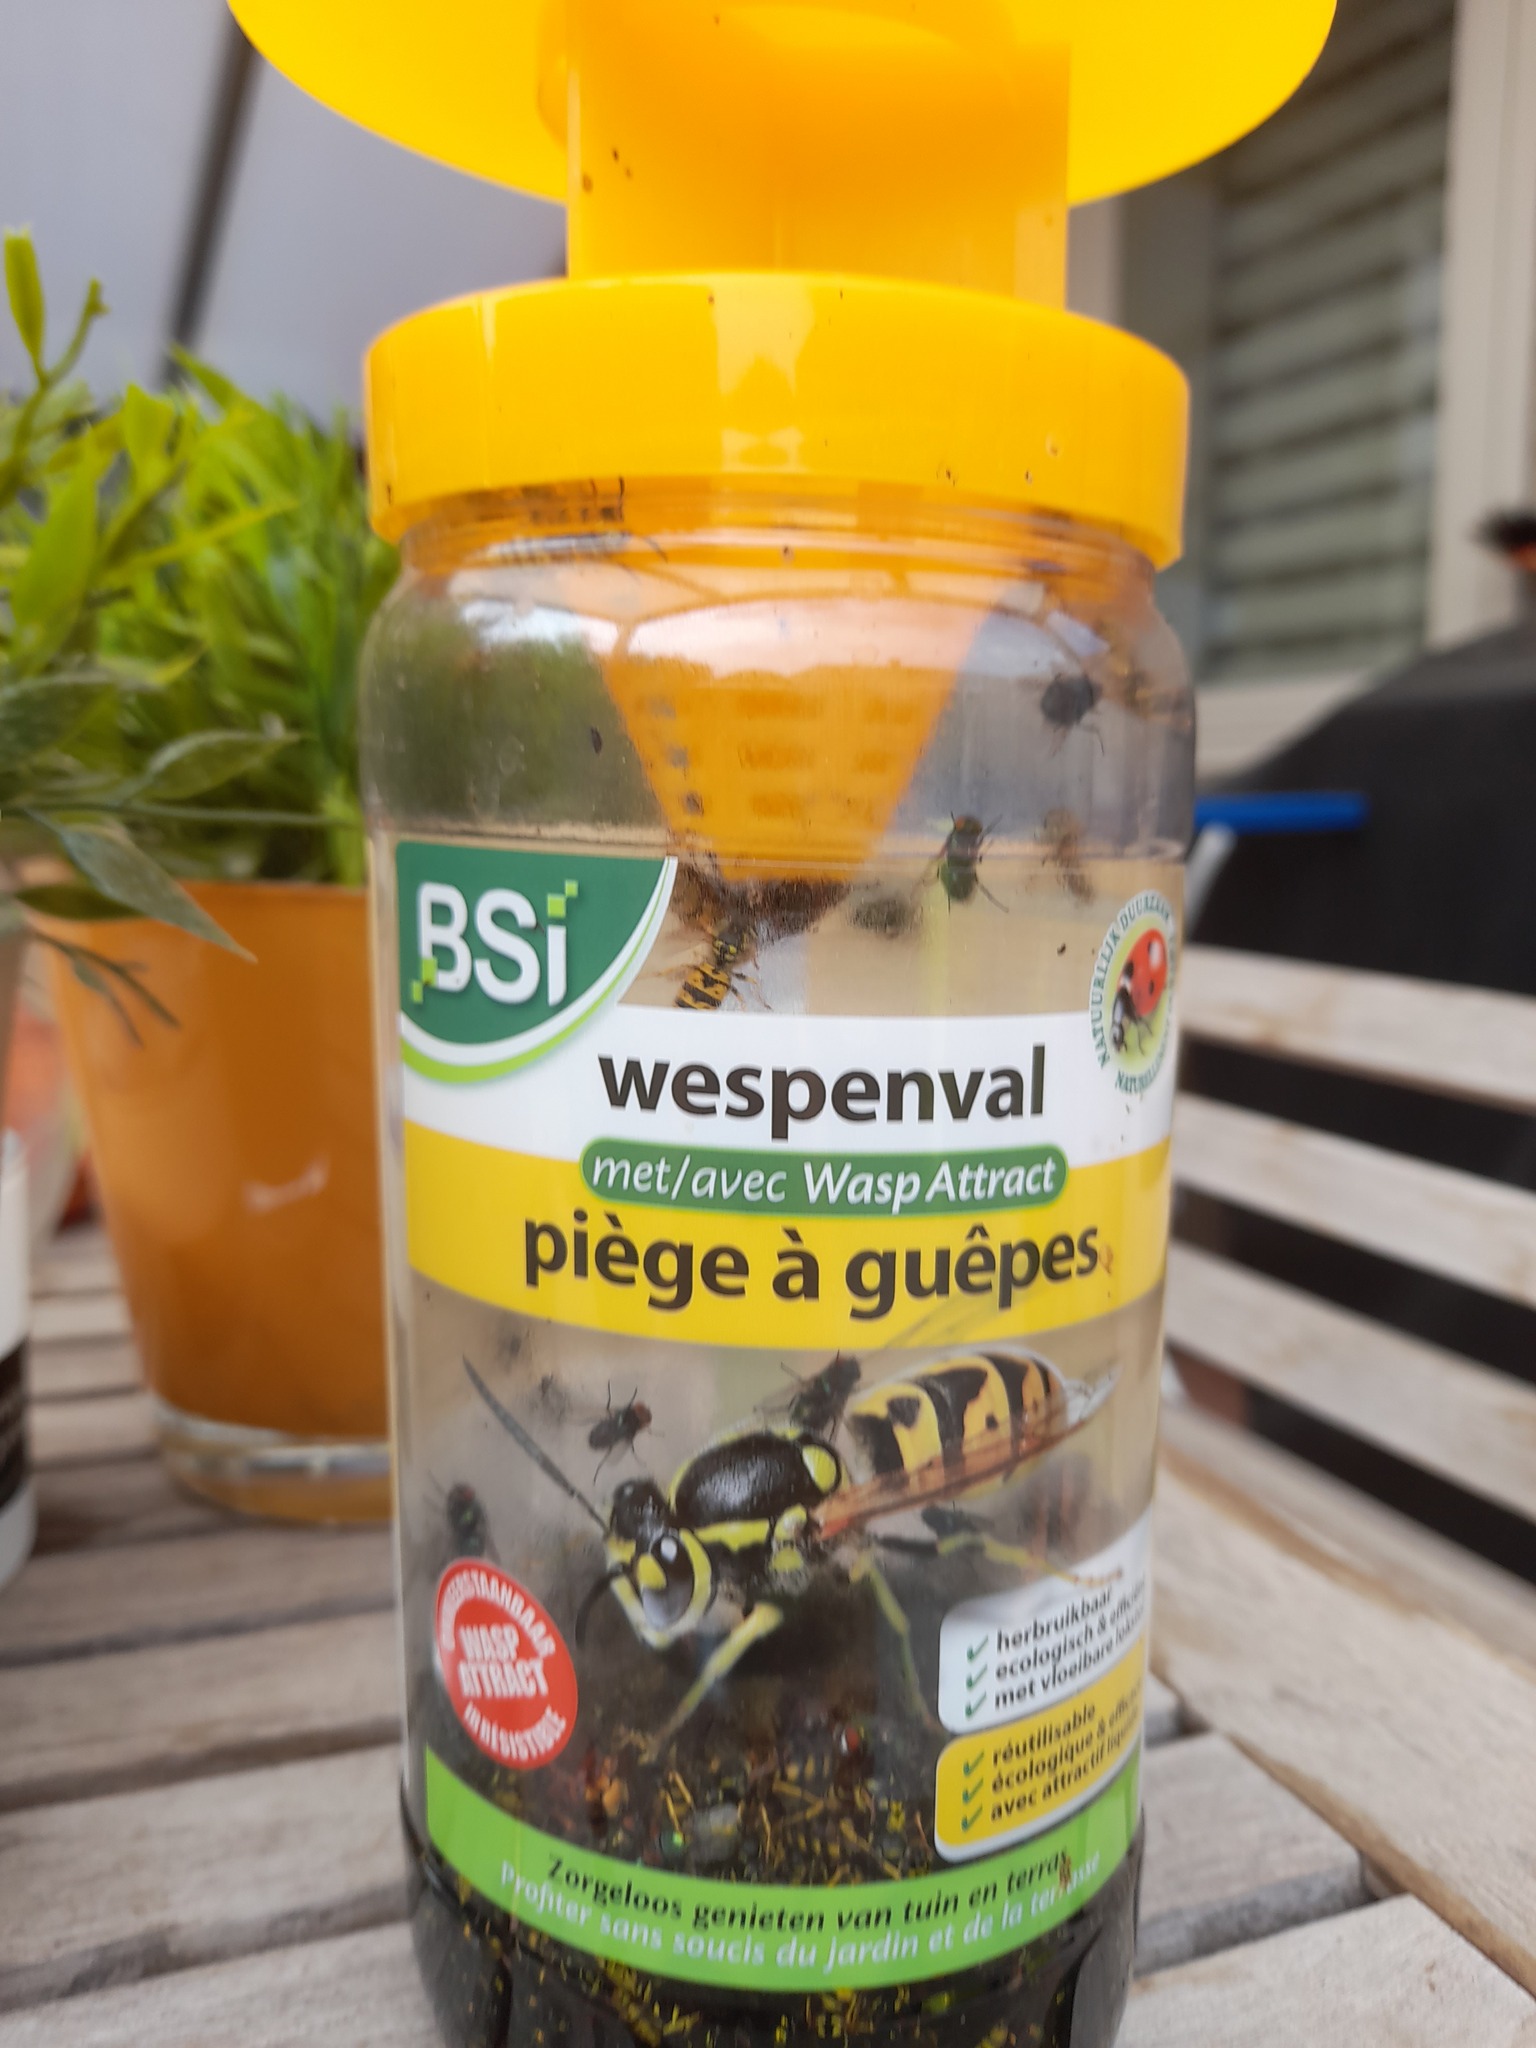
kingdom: Animalia
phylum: Arthropoda
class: Insecta
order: Hymenoptera
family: Vespidae
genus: Vespa
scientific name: Vespa crabro
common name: Hornet
